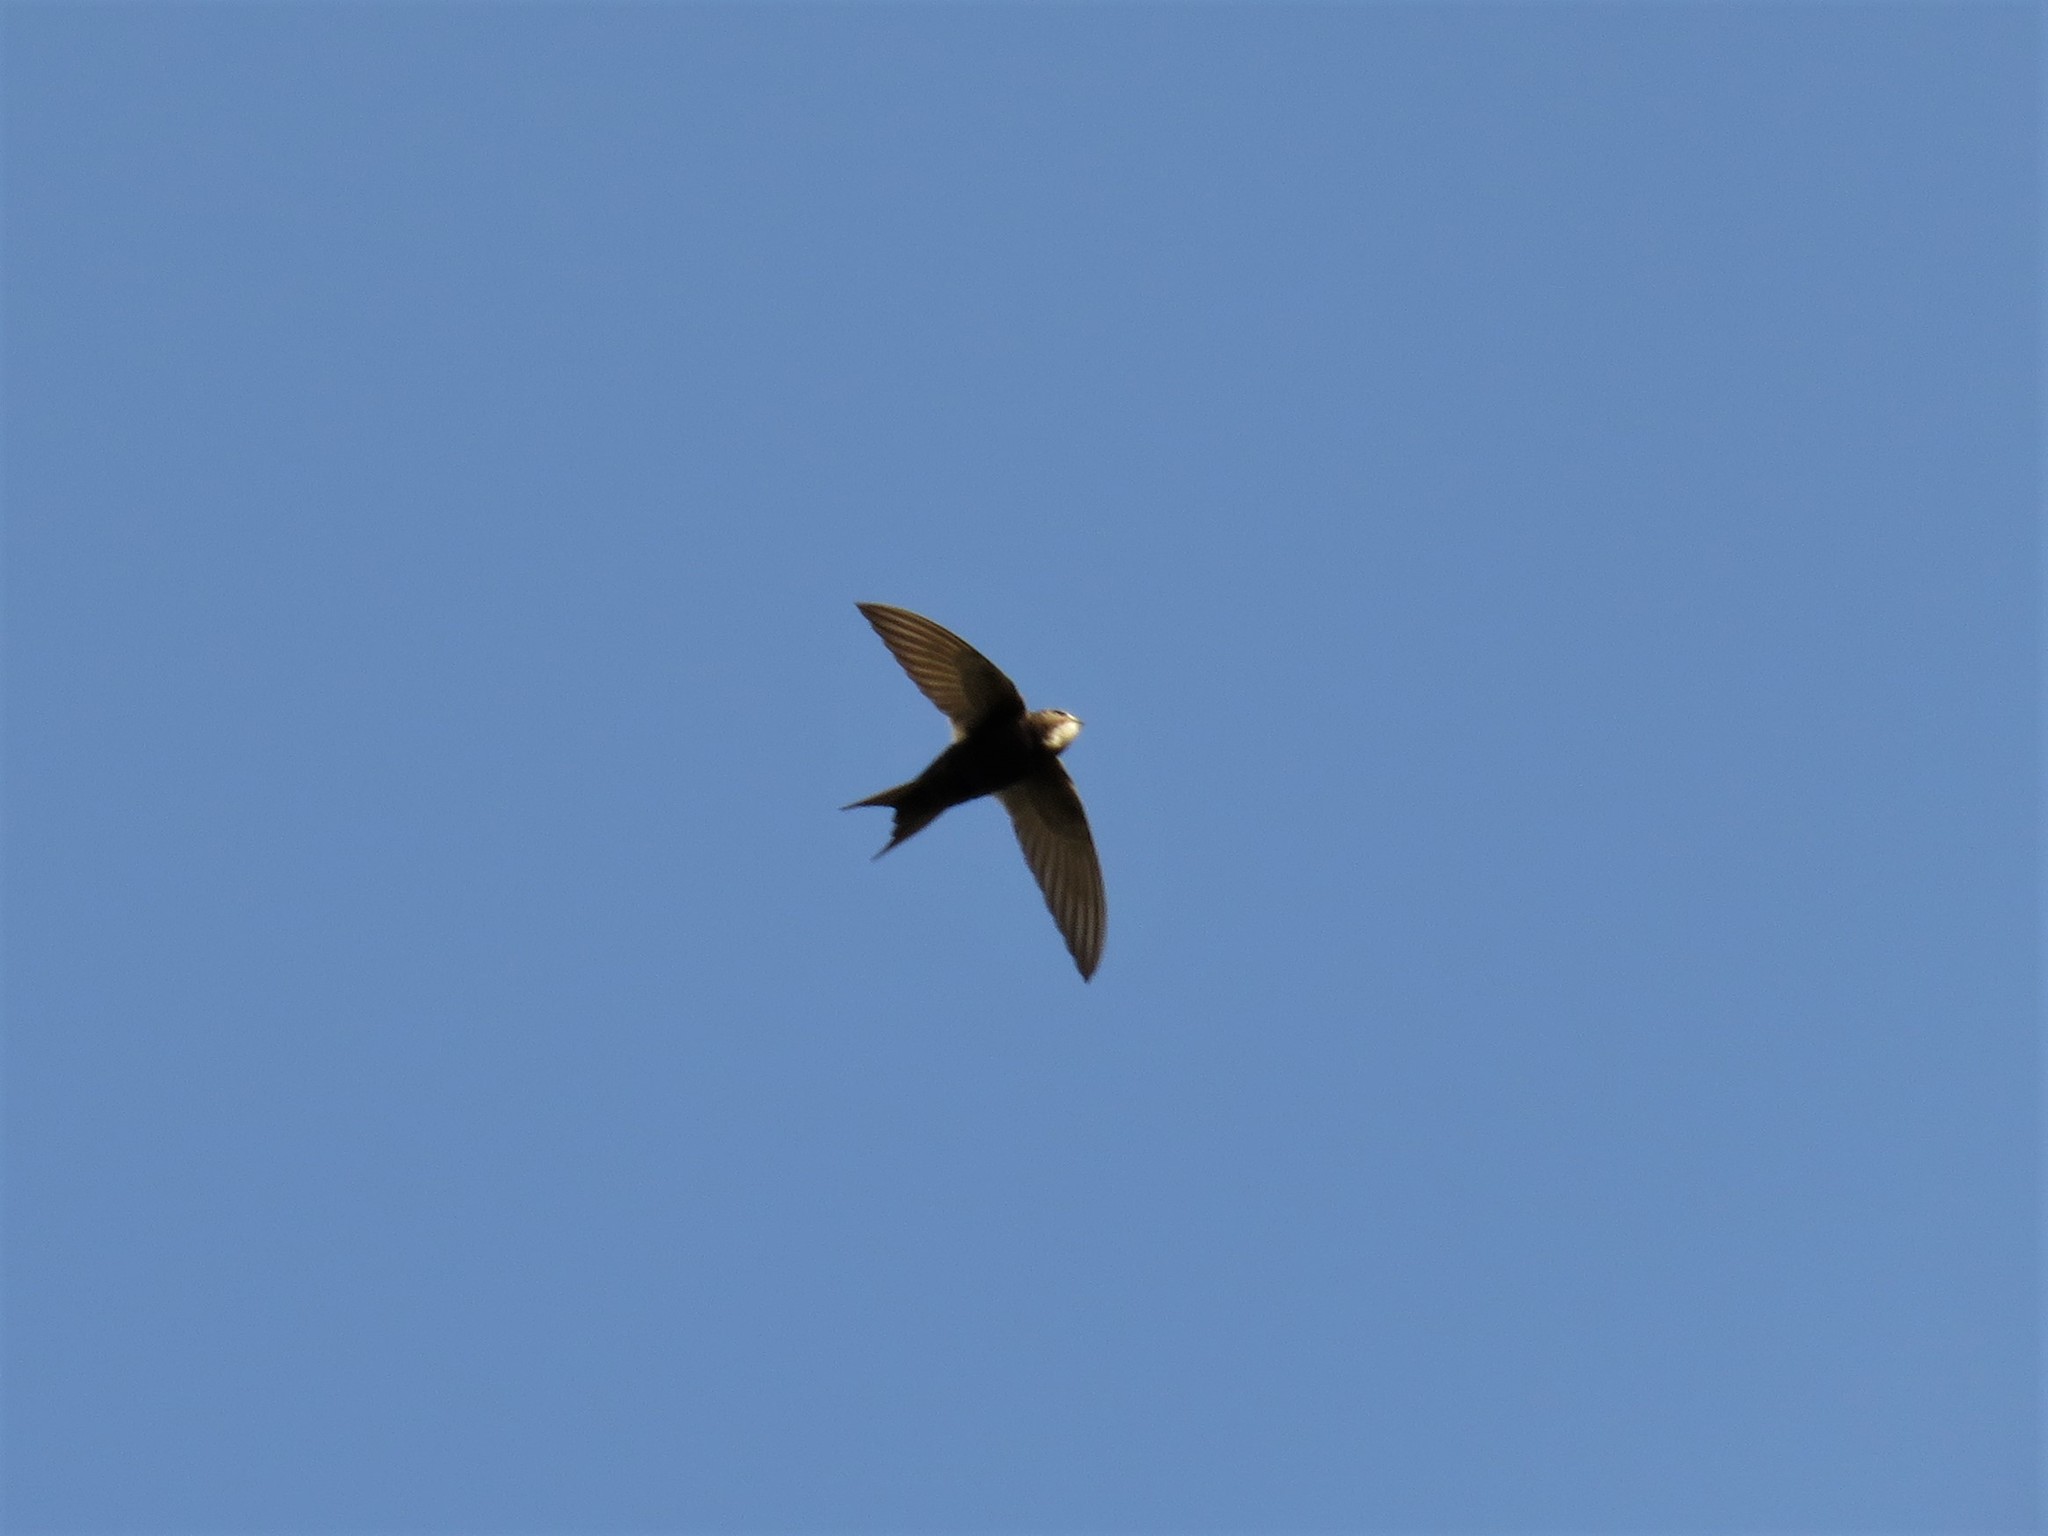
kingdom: Animalia
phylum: Chordata
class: Aves
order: Apodiformes
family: Apodidae
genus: Apus
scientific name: Apus caffer
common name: White-rumped swift
